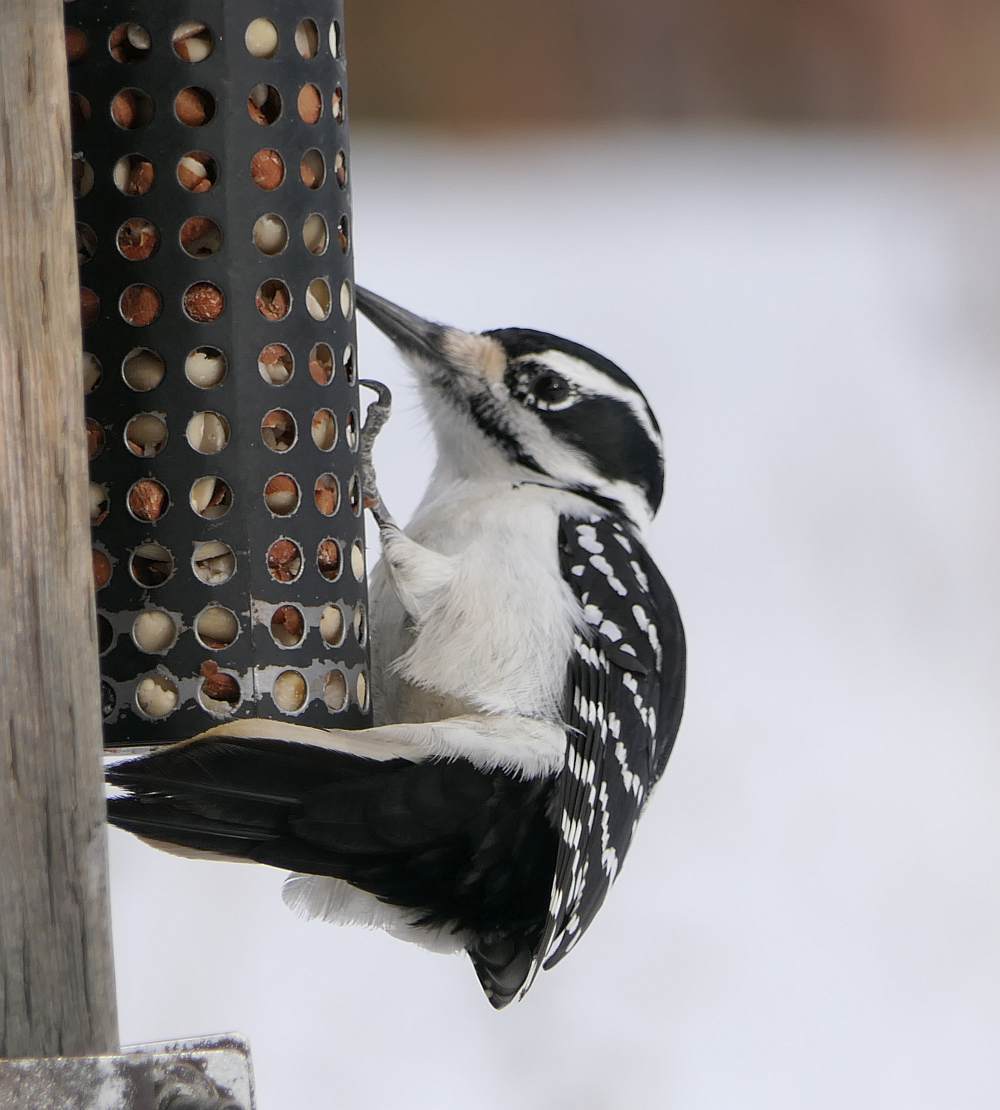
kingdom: Animalia
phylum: Chordata
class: Aves
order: Piciformes
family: Picidae
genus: Leuconotopicus
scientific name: Leuconotopicus villosus
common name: Hairy woodpecker
